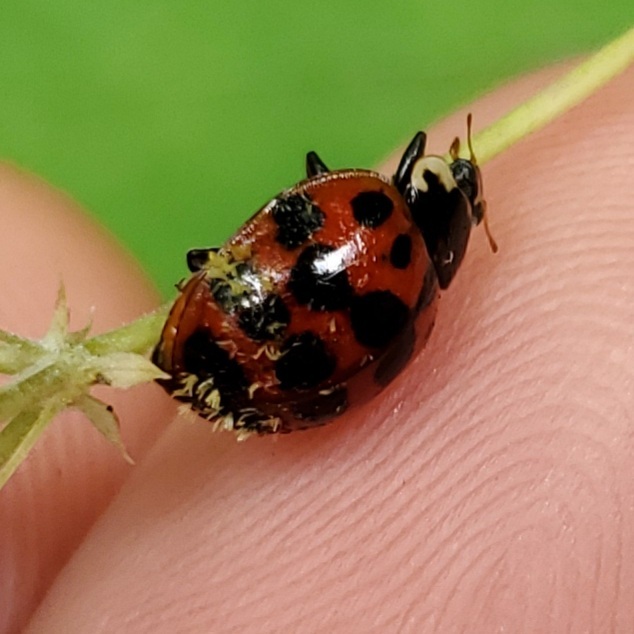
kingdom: Fungi
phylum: Ascomycota
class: Laboulbeniomycetes
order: Laboulbeniales
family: Laboulbeniaceae
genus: Hesperomyces
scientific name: Hesperomyces harmoniae
